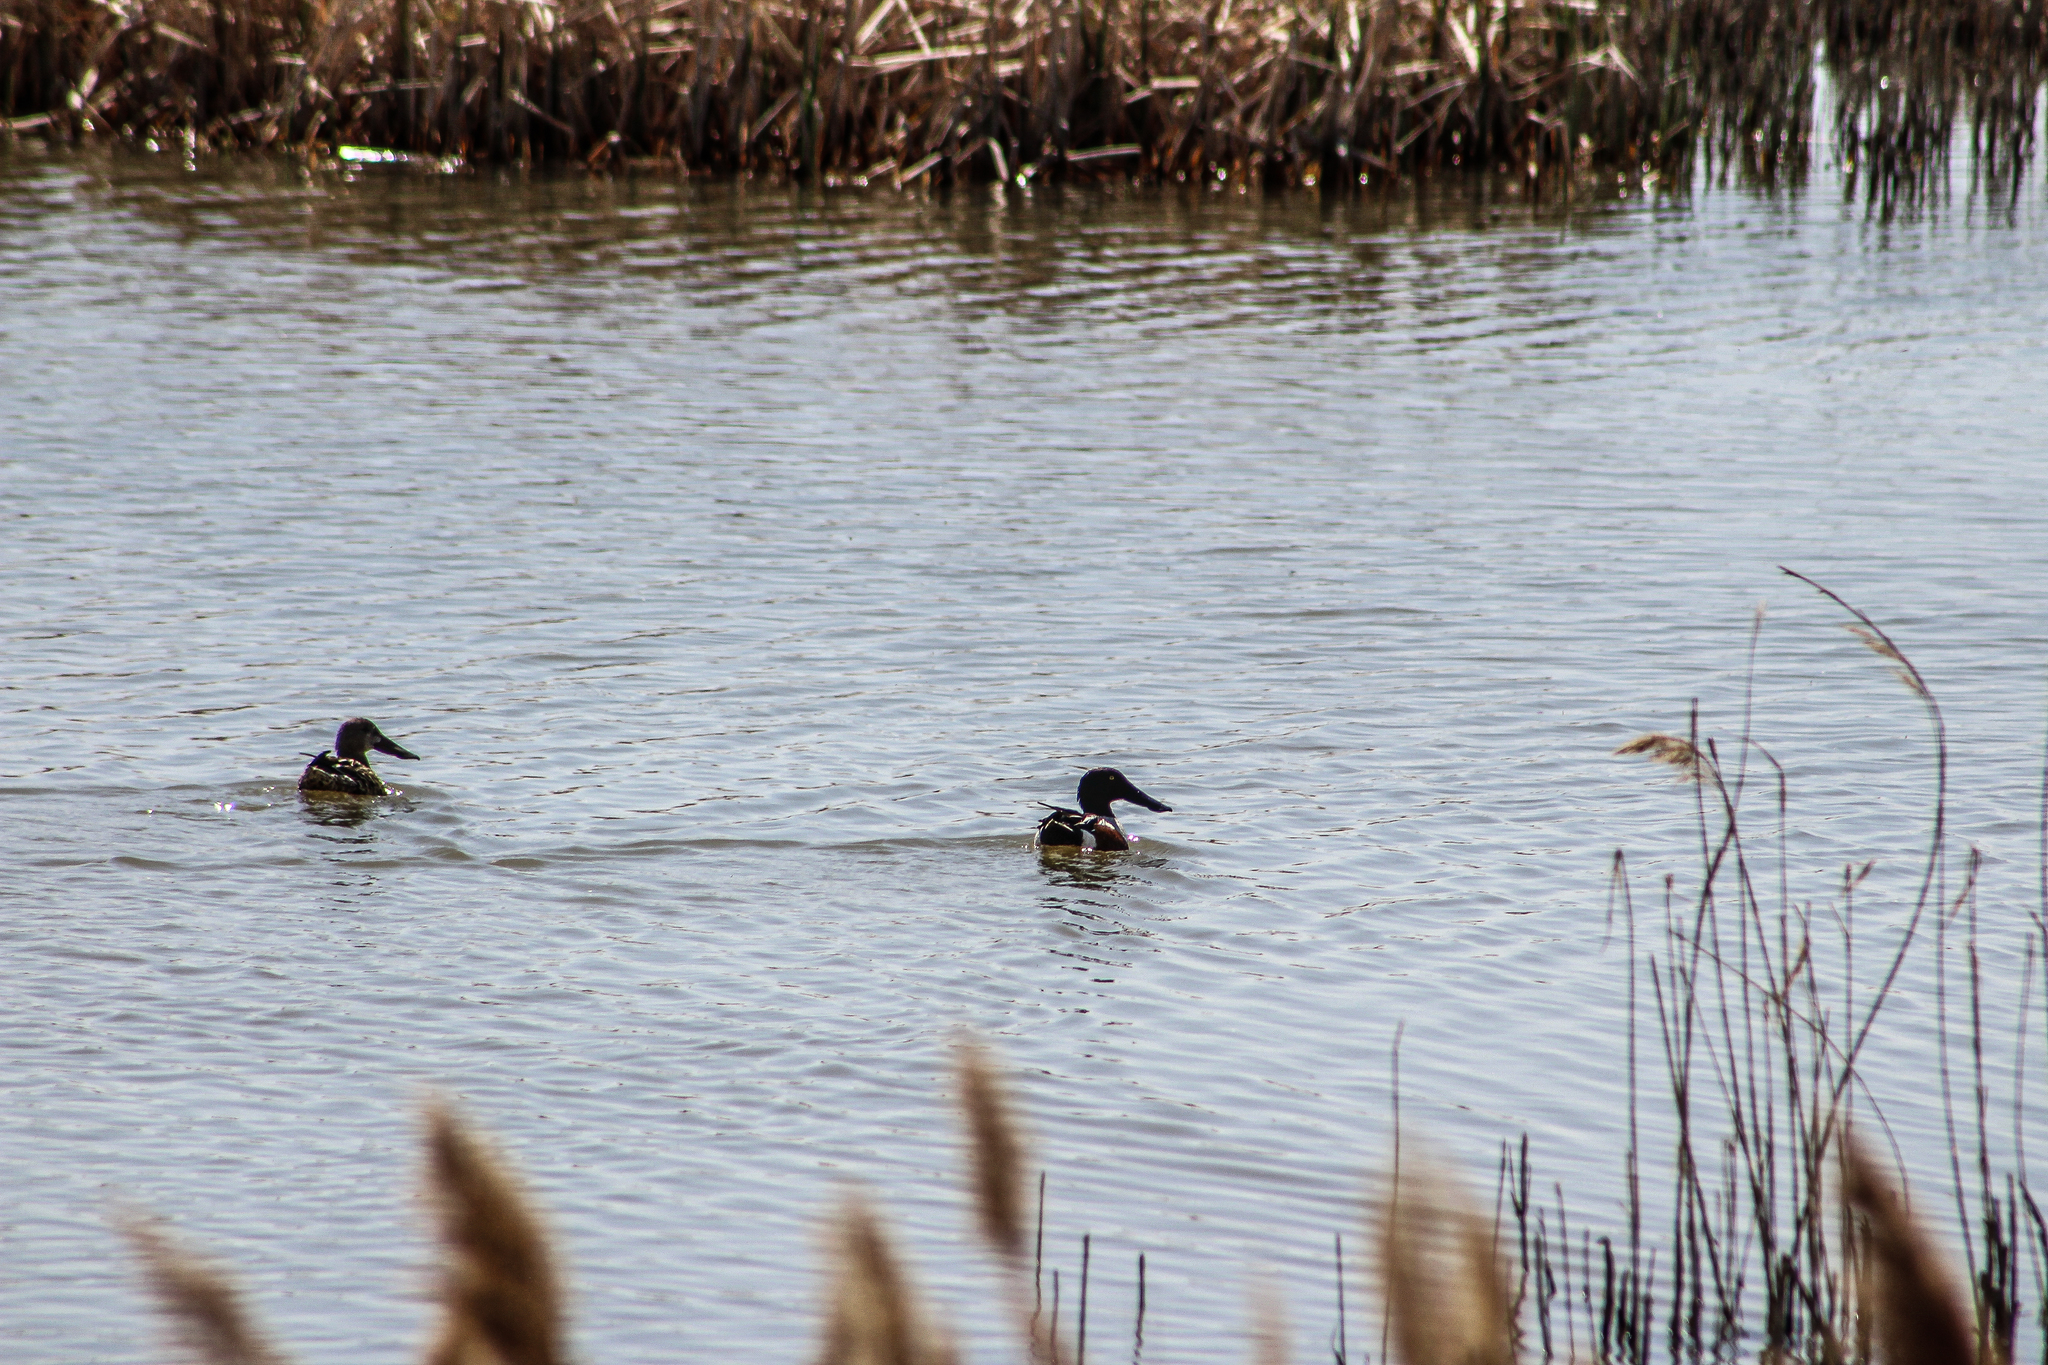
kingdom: Animalia
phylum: Chordata
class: Aves
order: Anseriformes
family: Anatidae
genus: Spatula
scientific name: Spatula clypeata
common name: Northern shoveler
